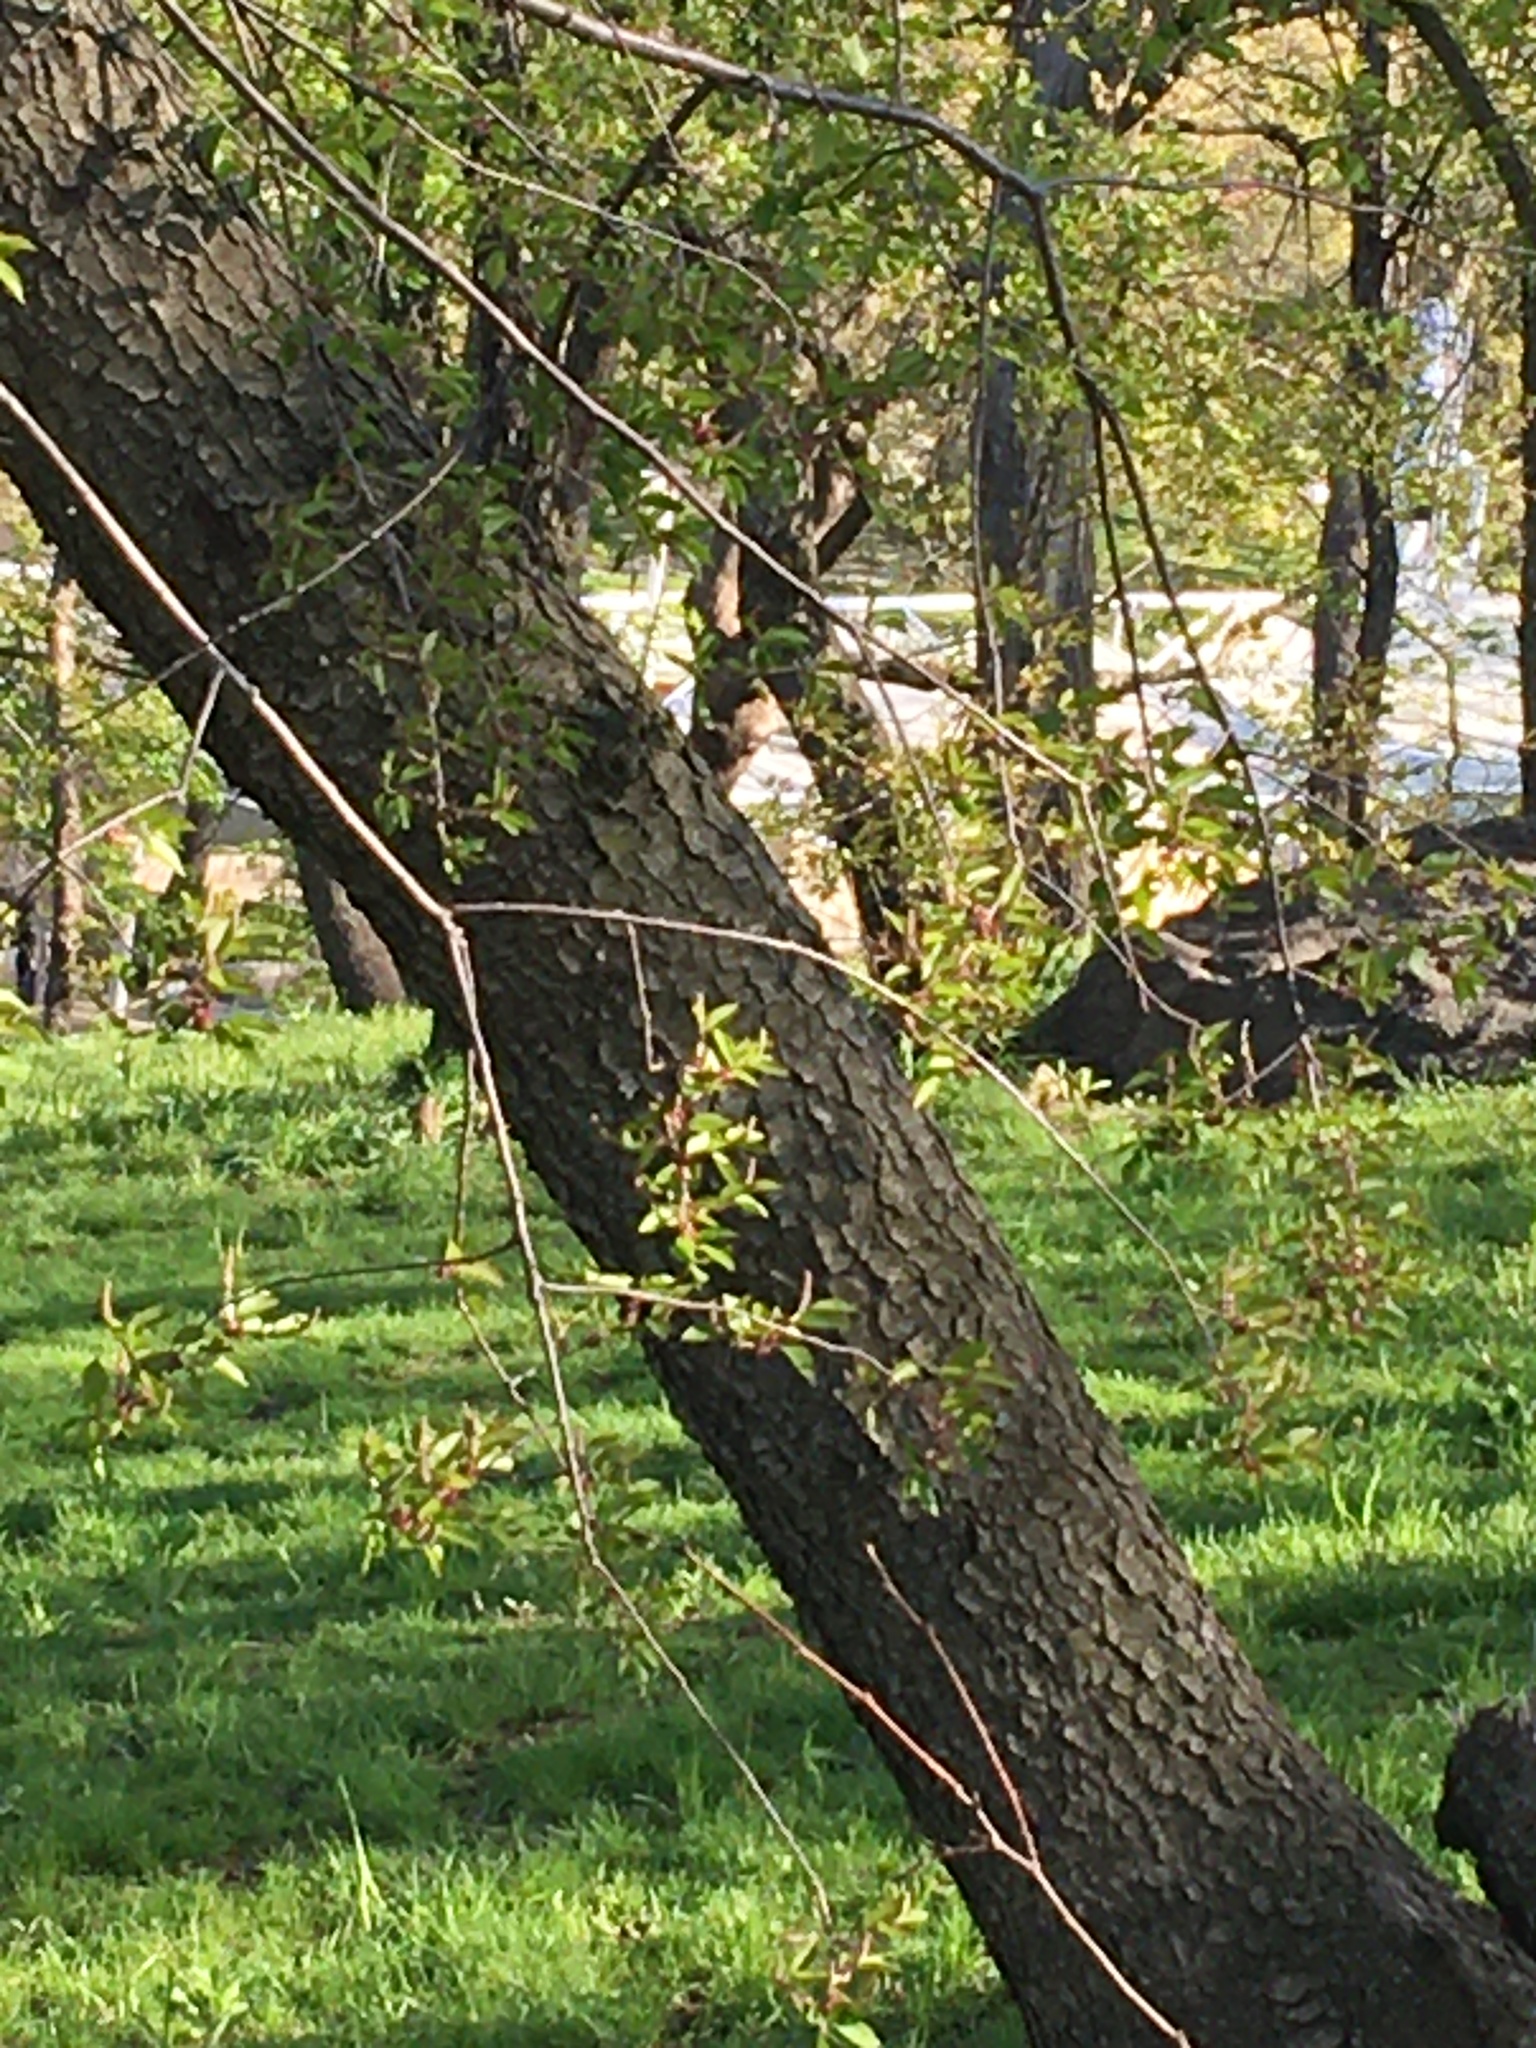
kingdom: Plantae
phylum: Tracheophyta
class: Magnoliopsida
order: Rosales
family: Rosaceae
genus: Prunus
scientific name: Prunus serotina
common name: Black cherry
